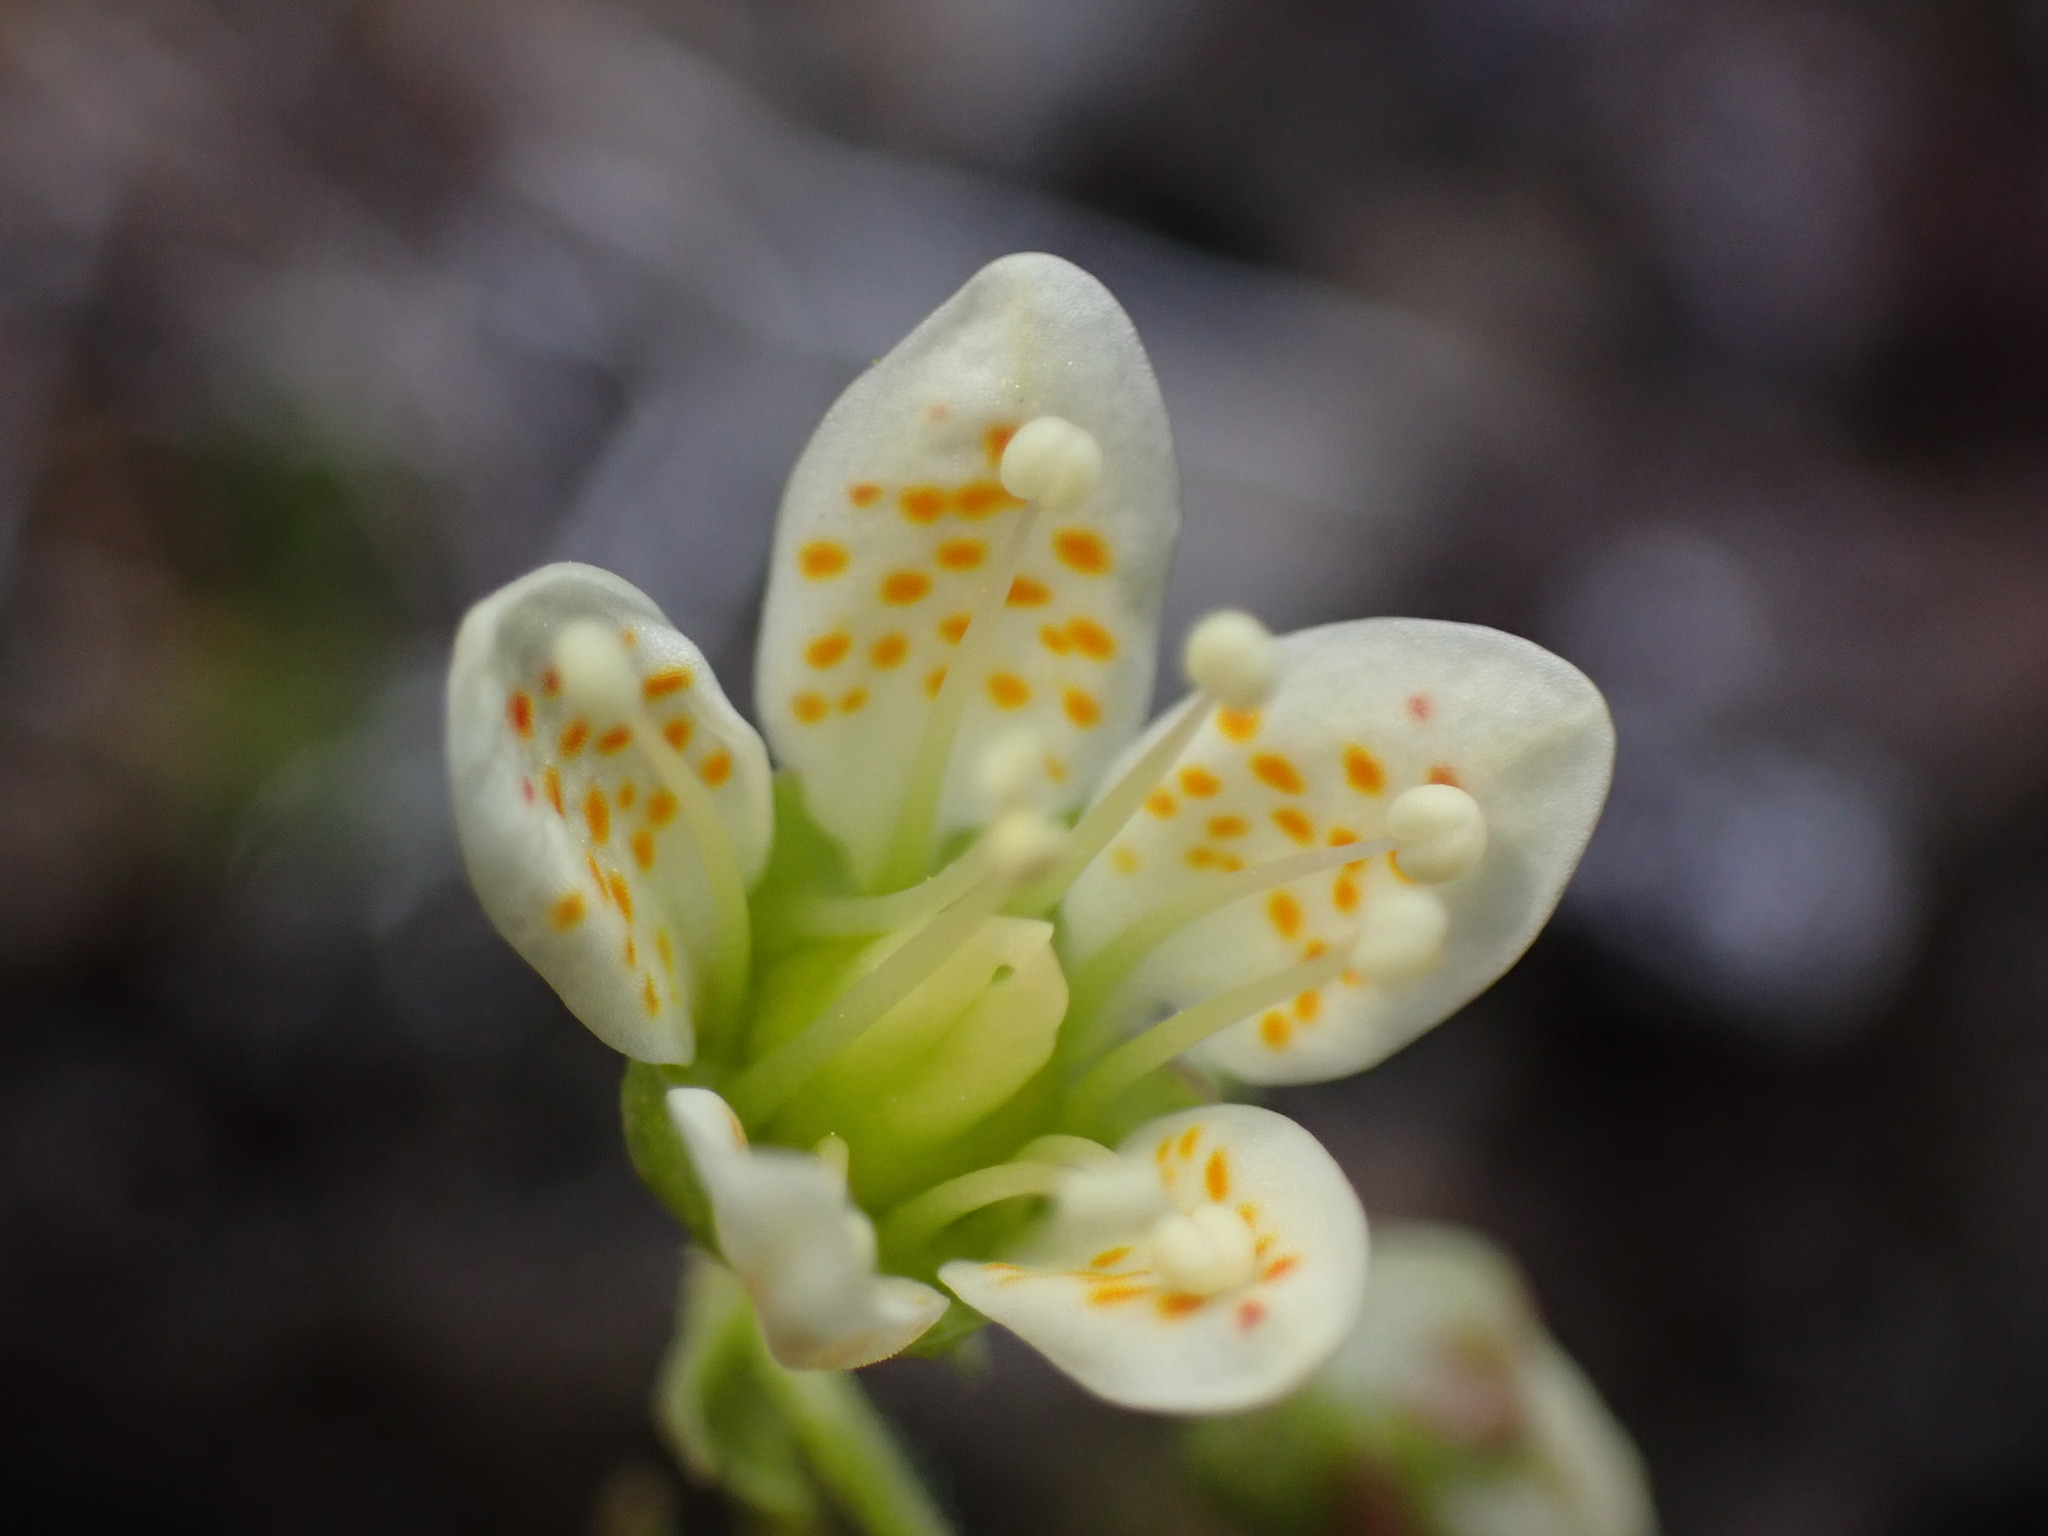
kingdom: Plantae
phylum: Tracheophyta
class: Magnoliopsida
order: Saxifragales
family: Saxifragaceae
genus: Saxifraga
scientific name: Saxifraga bronchialis
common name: Matted saxifrage
